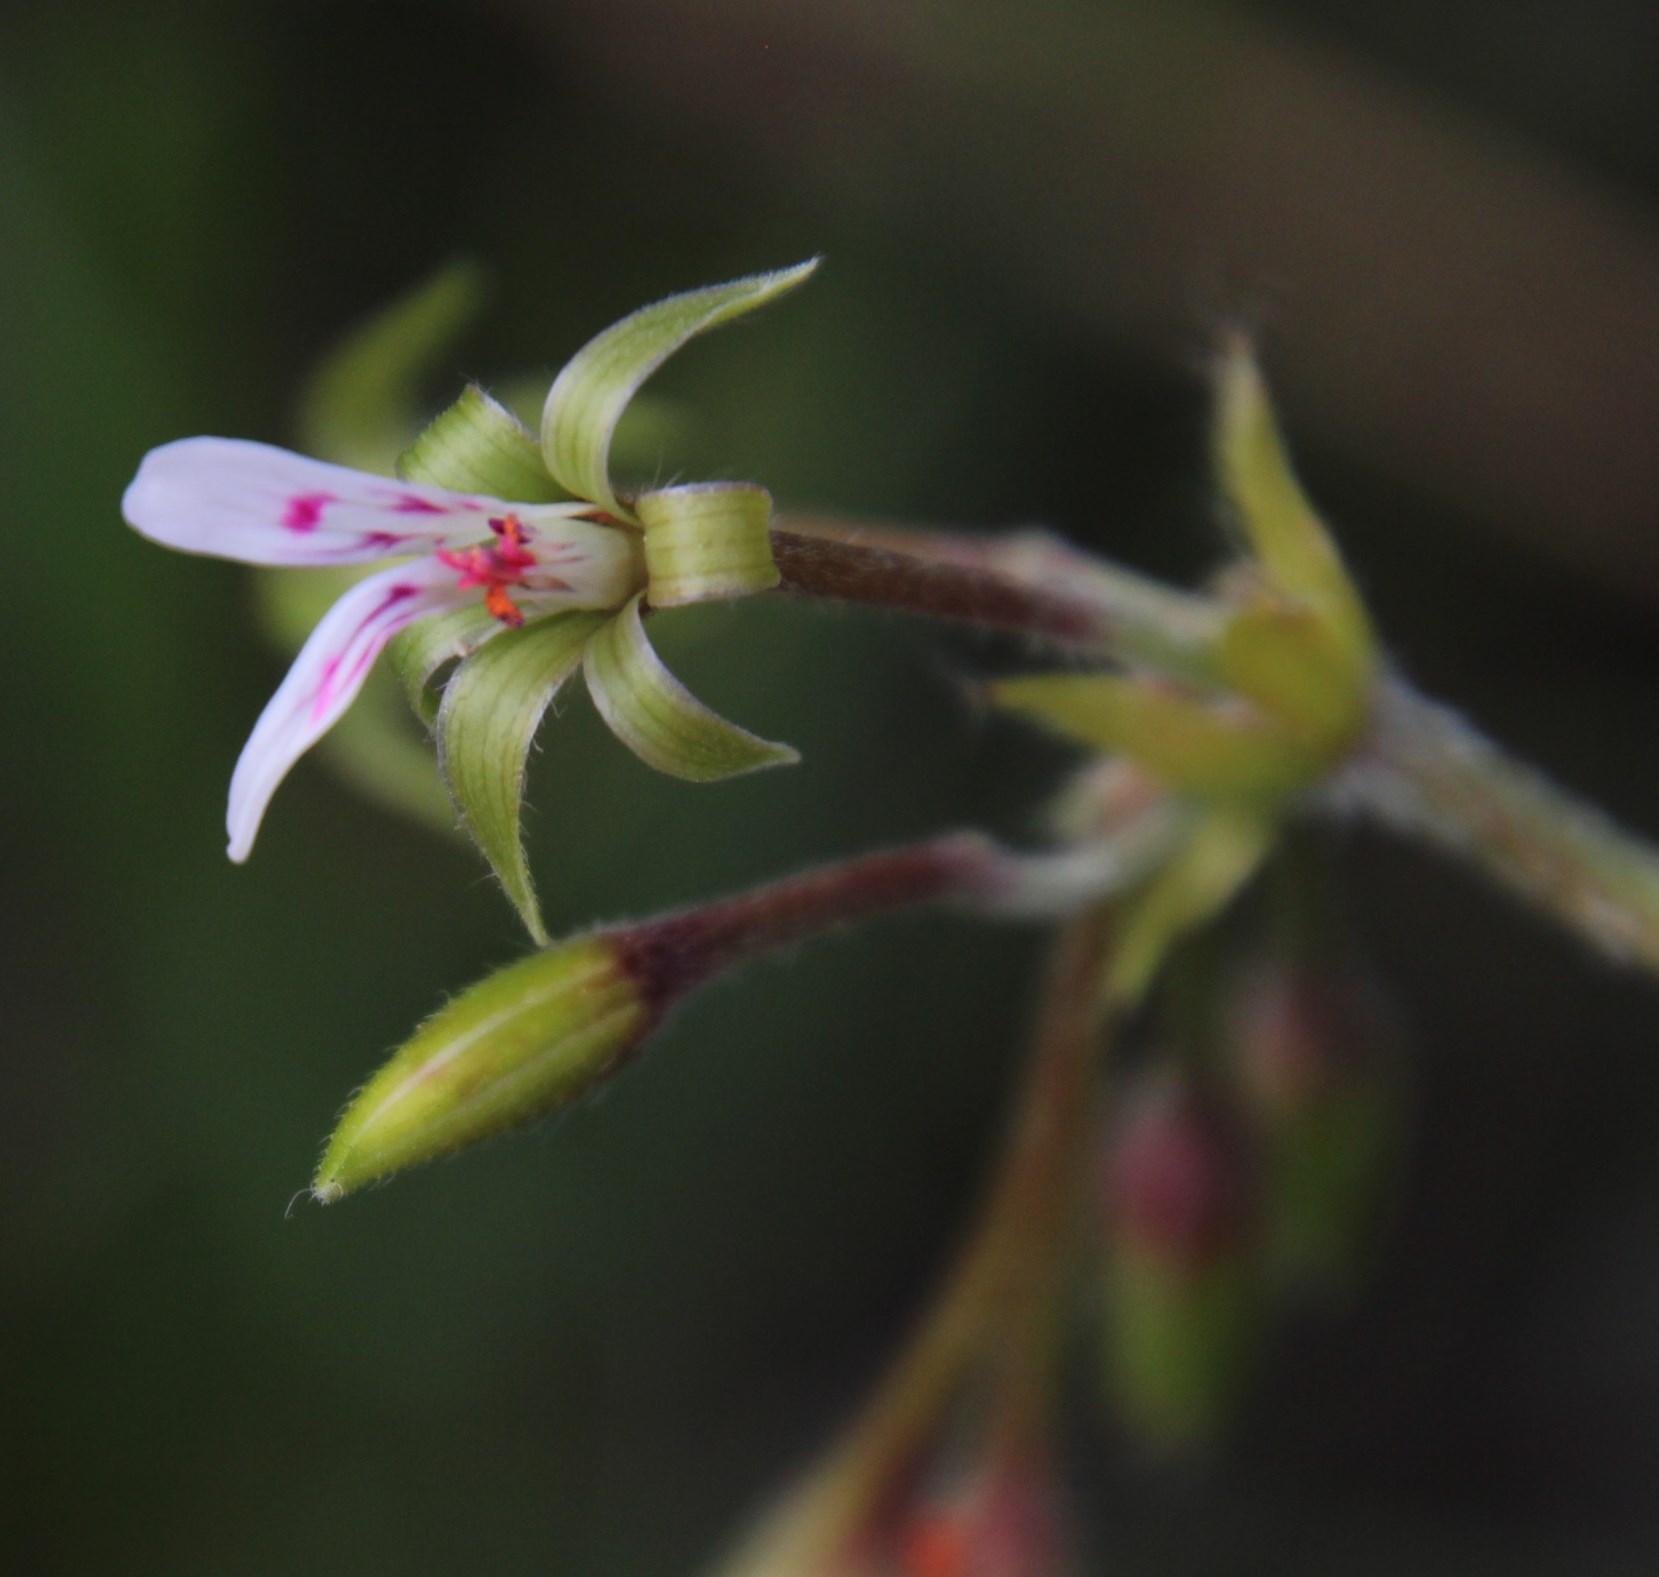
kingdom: Plantae
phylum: Tracheophyta
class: Magnoliopsida
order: Geraniales
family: Geraniaceae
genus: Pelargonium
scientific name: Pelargonium ranunculophyllum
